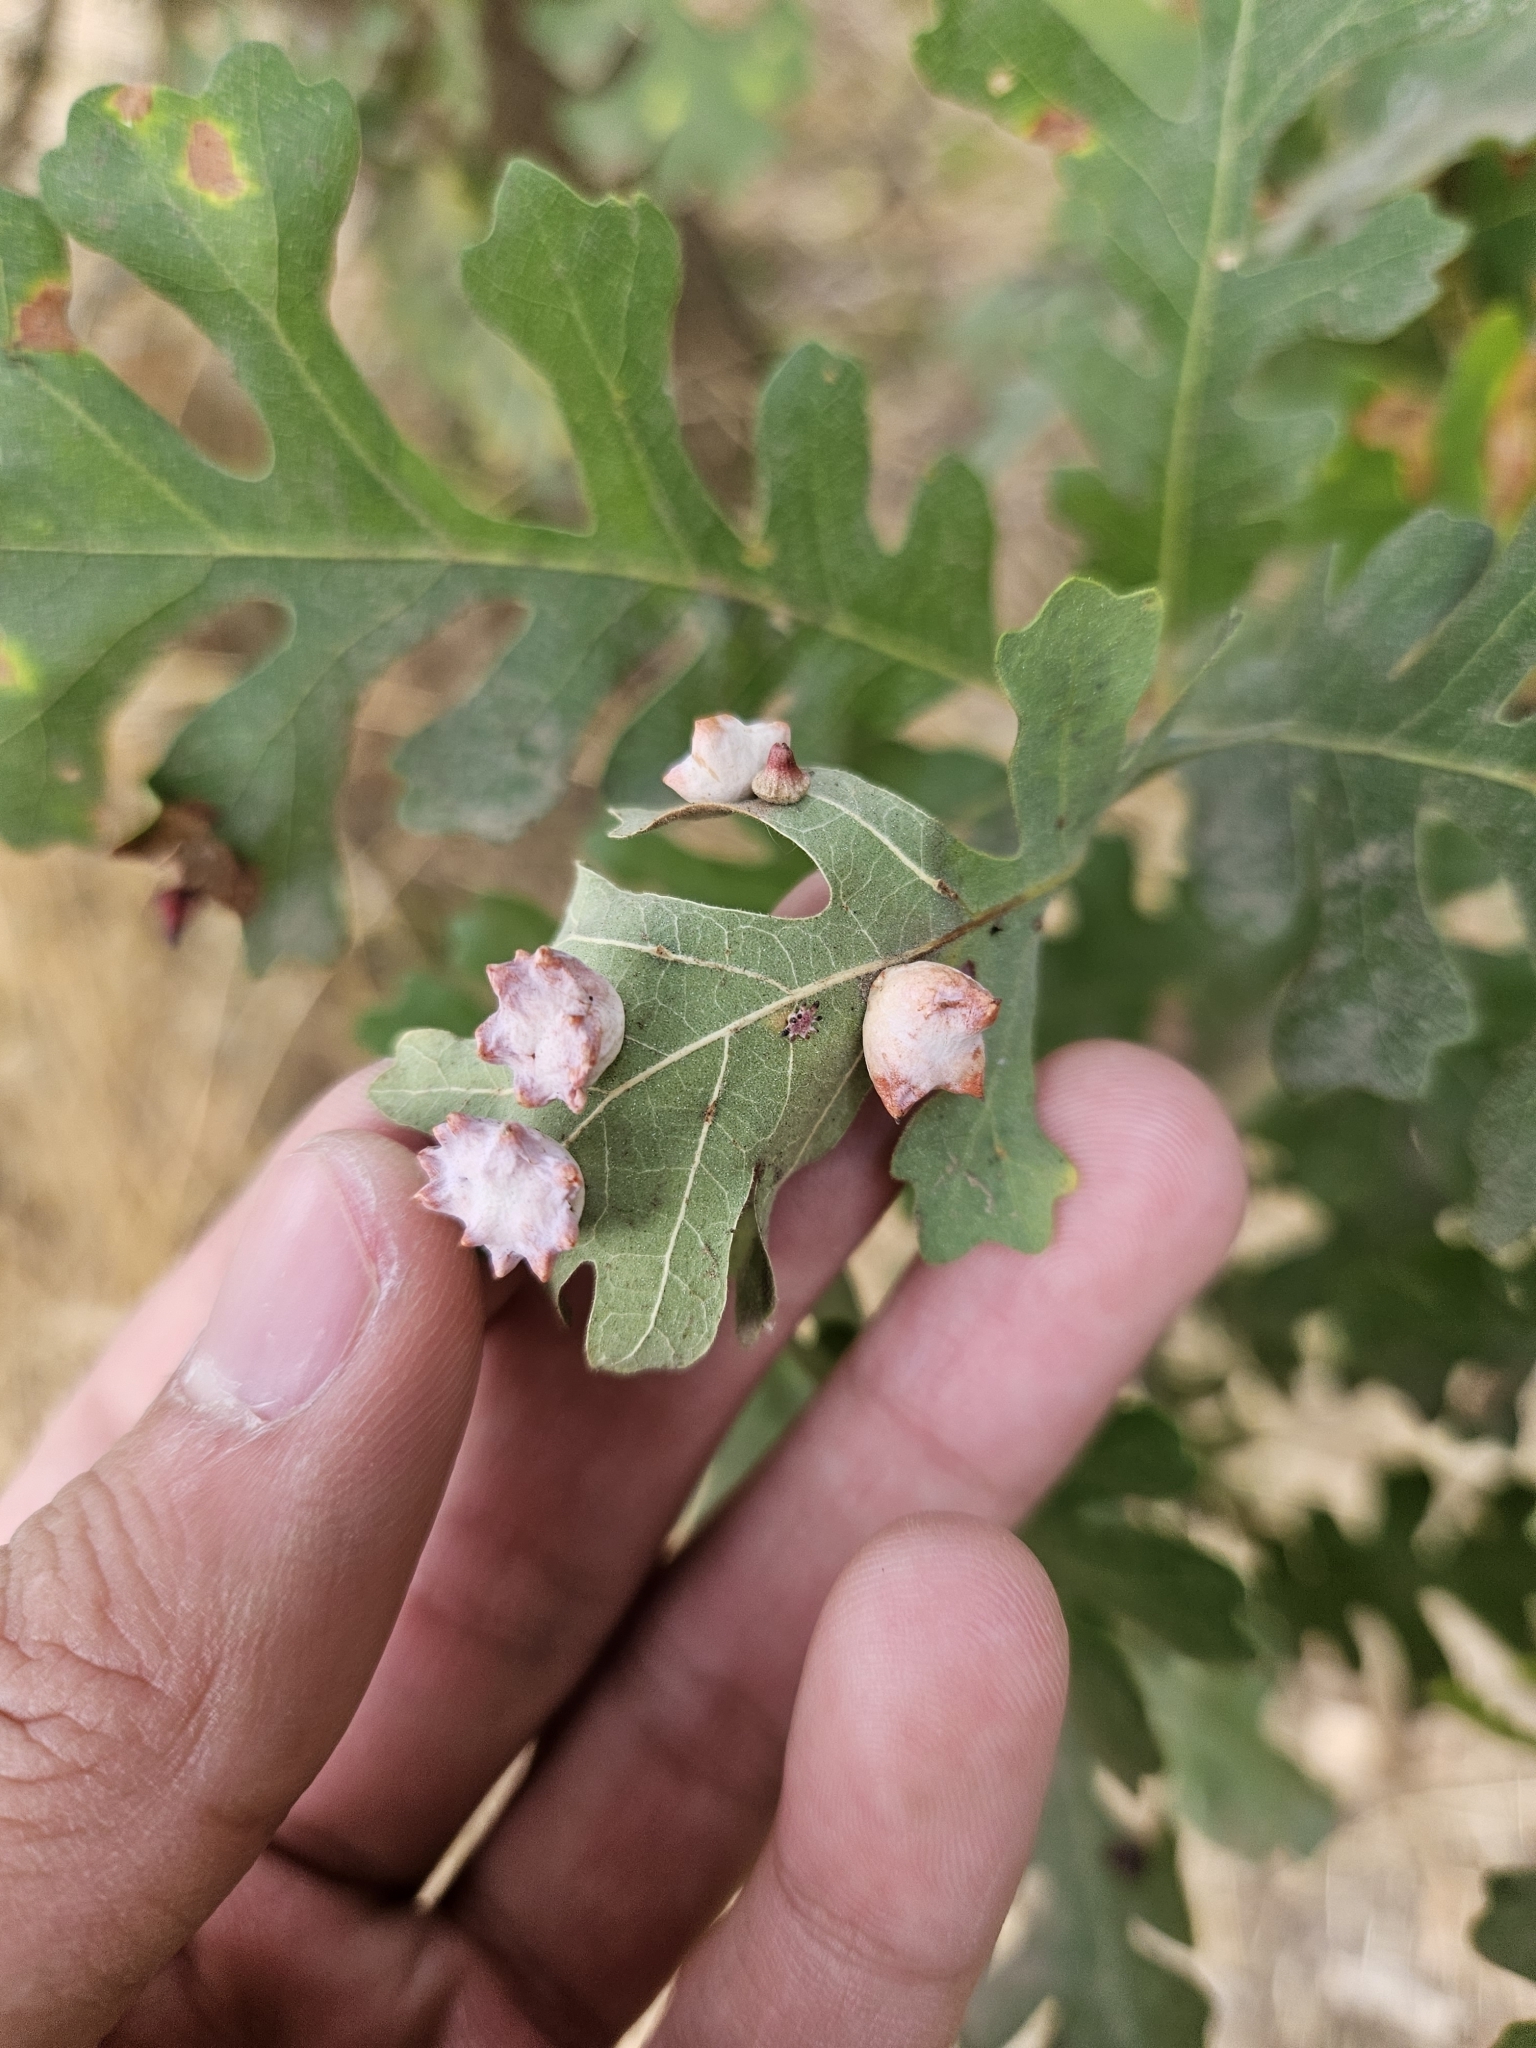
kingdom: Animalia
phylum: Arthropoda
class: Insecta
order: Hymenoptera
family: Cynipidae
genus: Cynips
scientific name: Cynips douglasi
